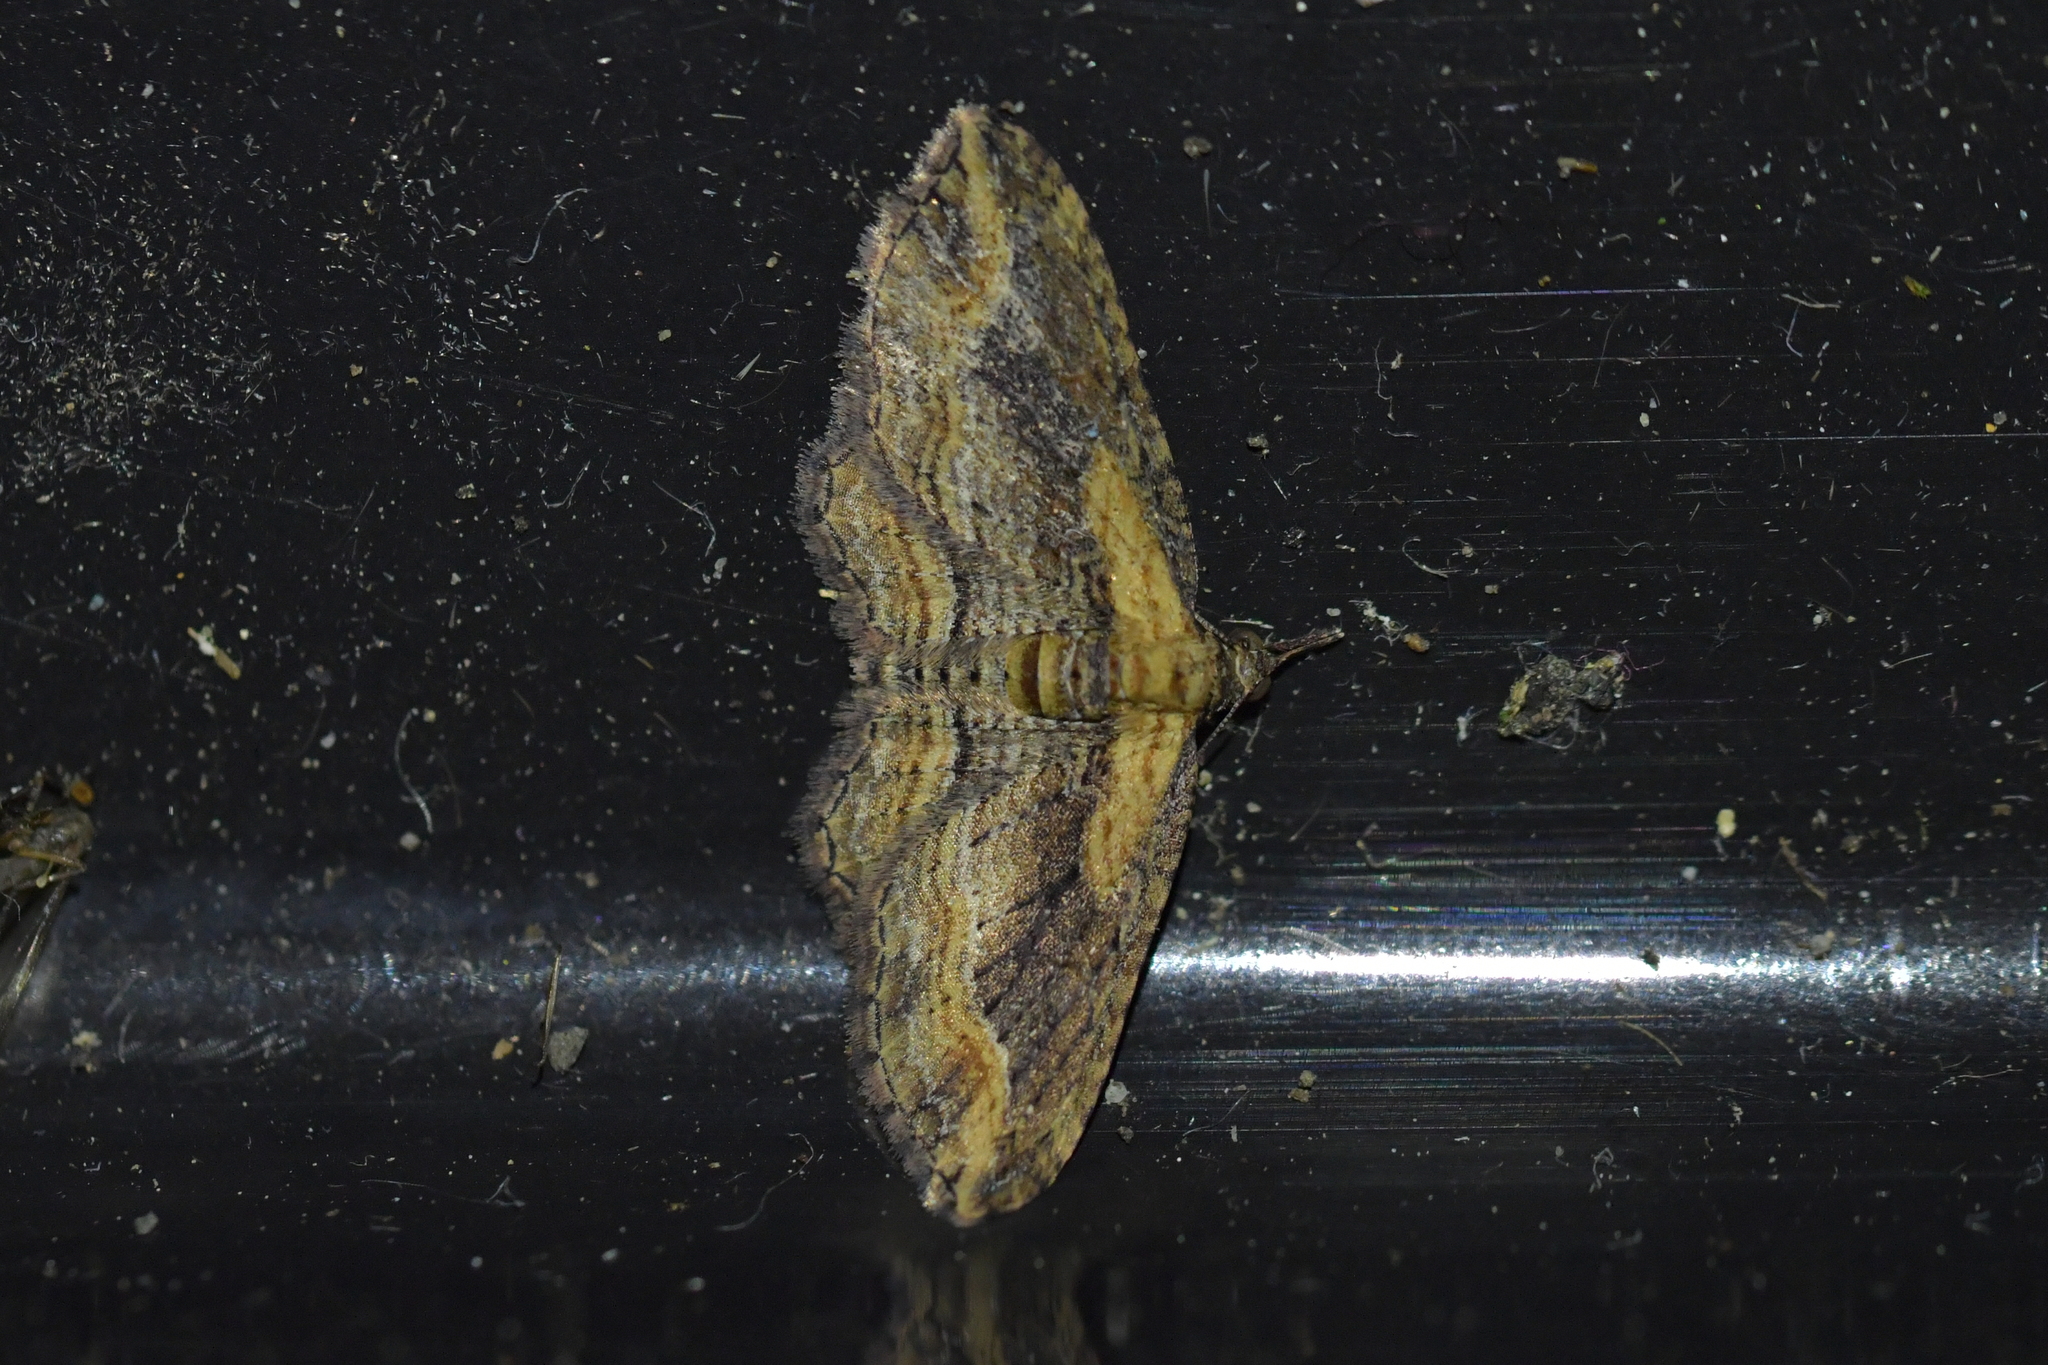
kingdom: Animalia
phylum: Arthropoda
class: Insecta
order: Lepidoptera
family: Geometridae
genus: Chloroclystis
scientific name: Chloroclystis filata
